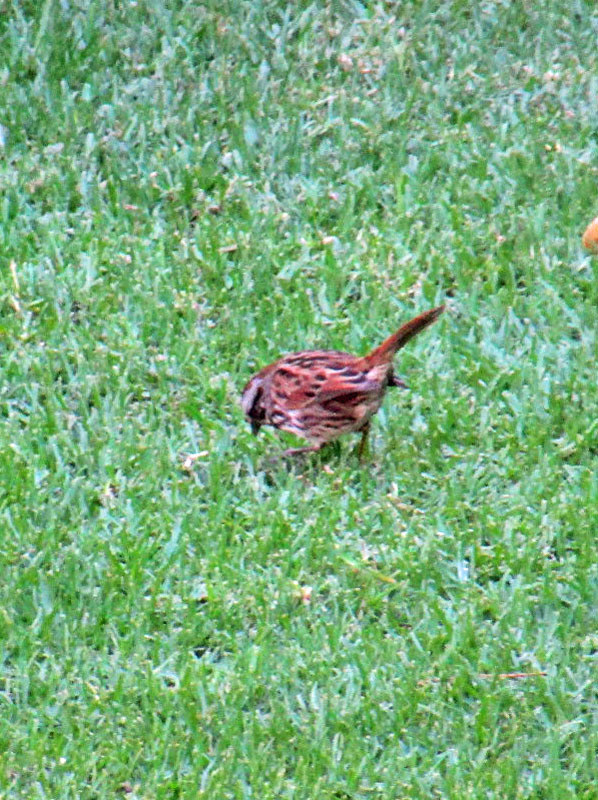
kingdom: Animalia
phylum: Chordata
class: Aves
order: Passeriformes
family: Passerellidae
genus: Melospiza
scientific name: Melospiza melodia
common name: Song sparrow
